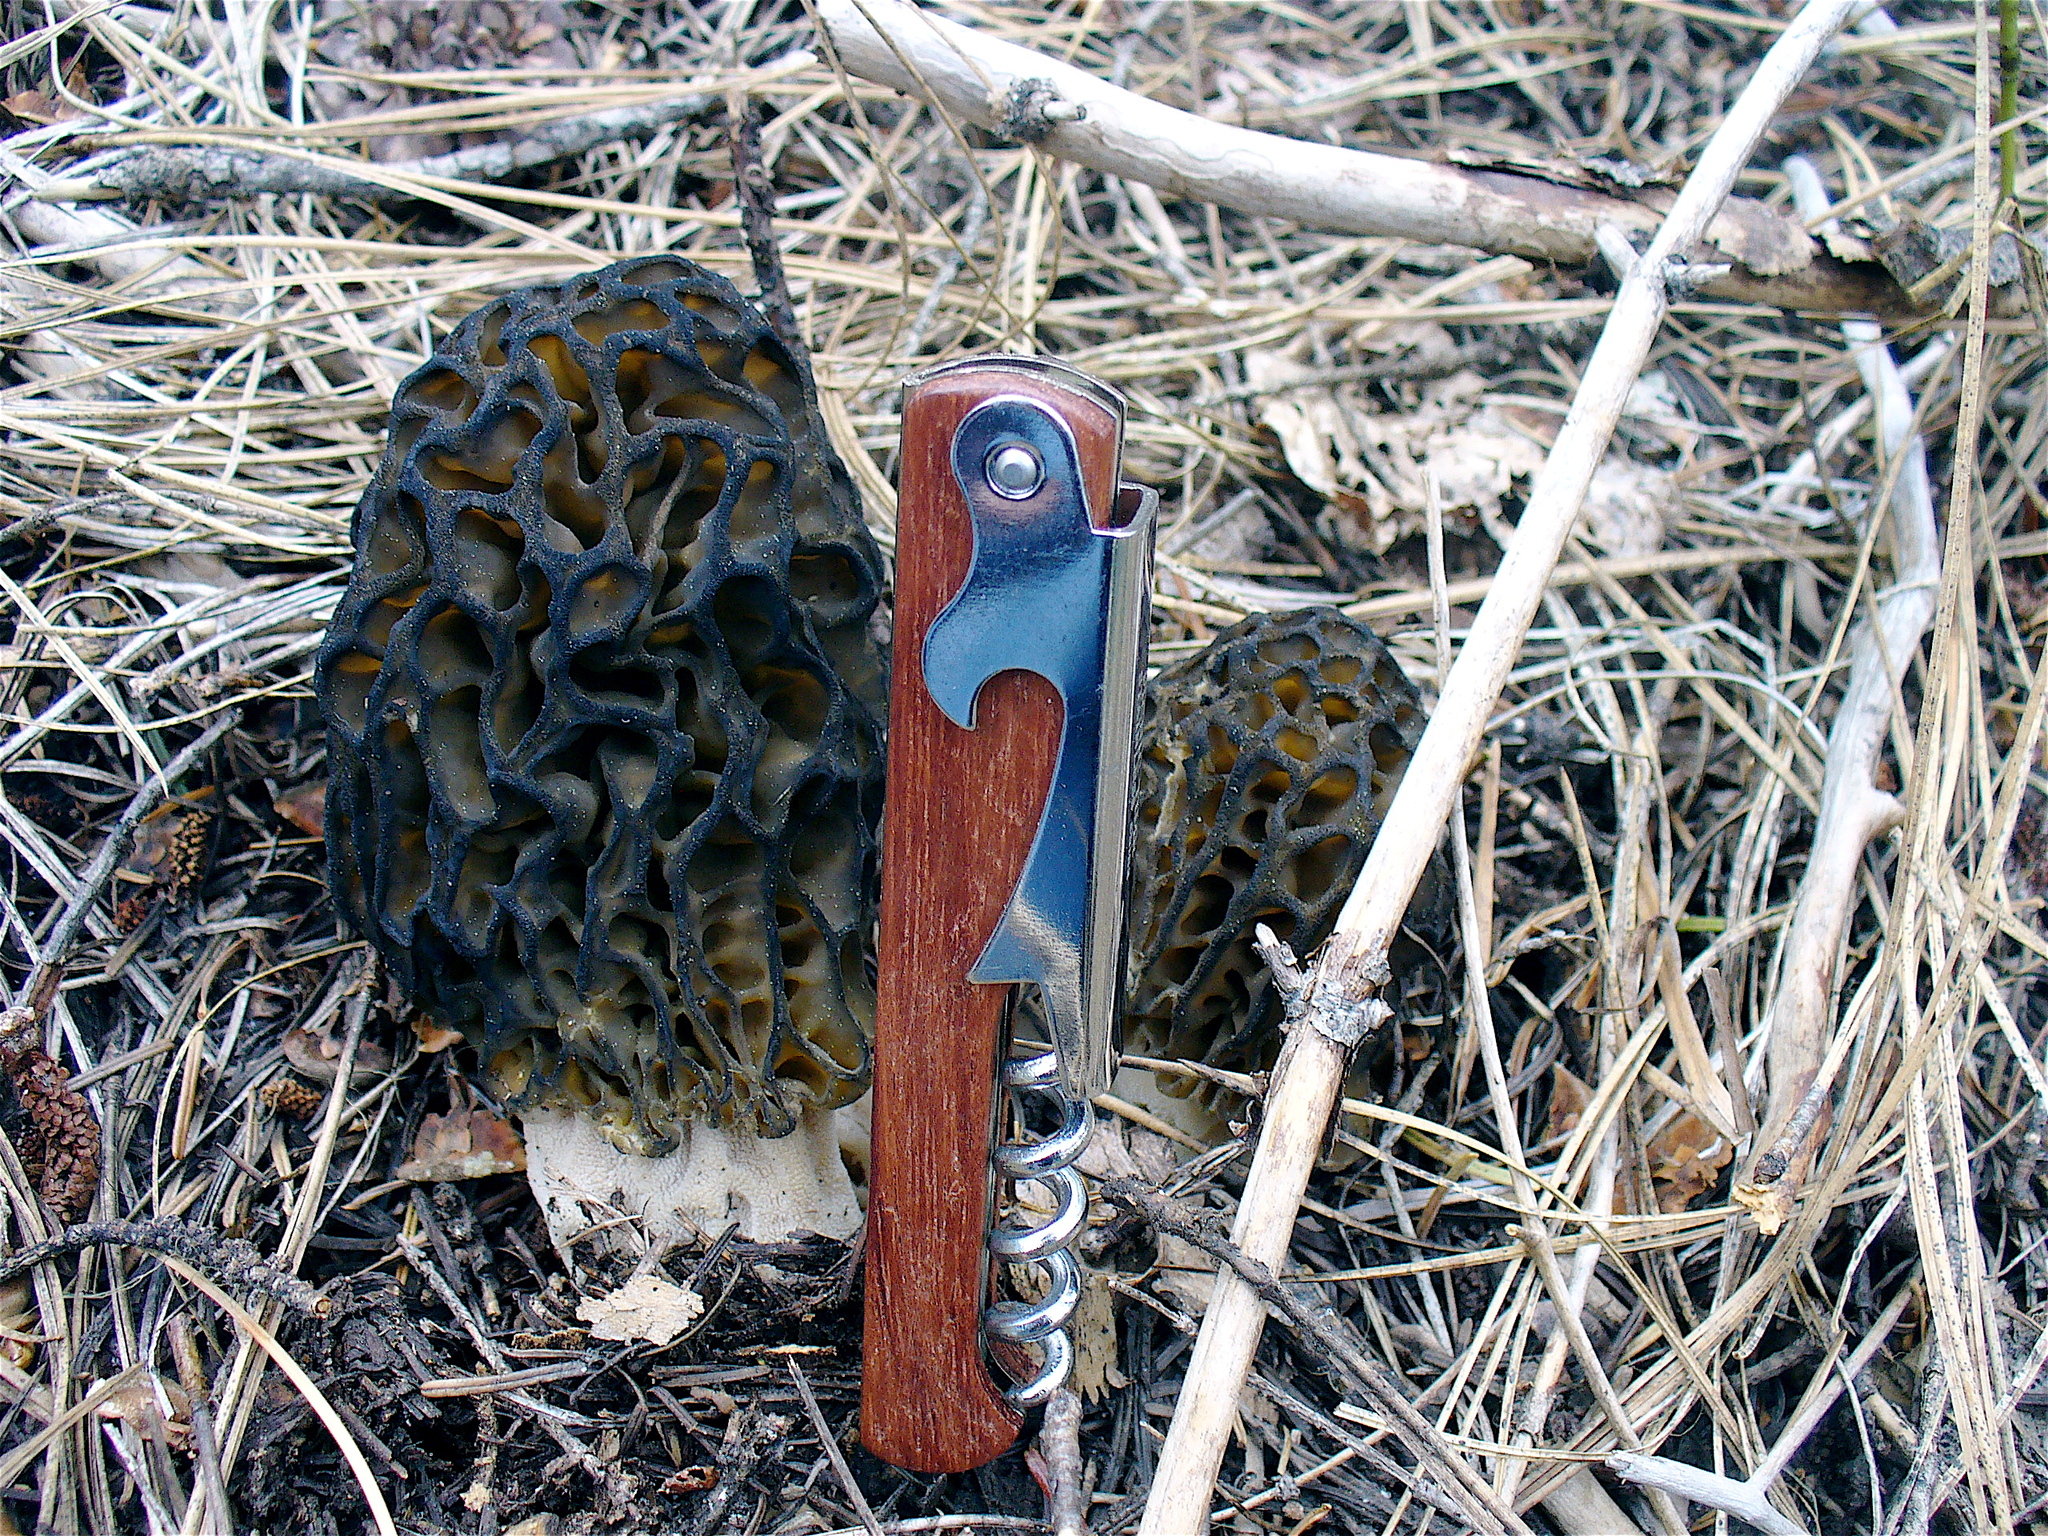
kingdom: Fungi
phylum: Ascomycota
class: Pezizomycetes
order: Pezizales
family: Morchellaceae
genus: Morchella
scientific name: Morchella snyderi
